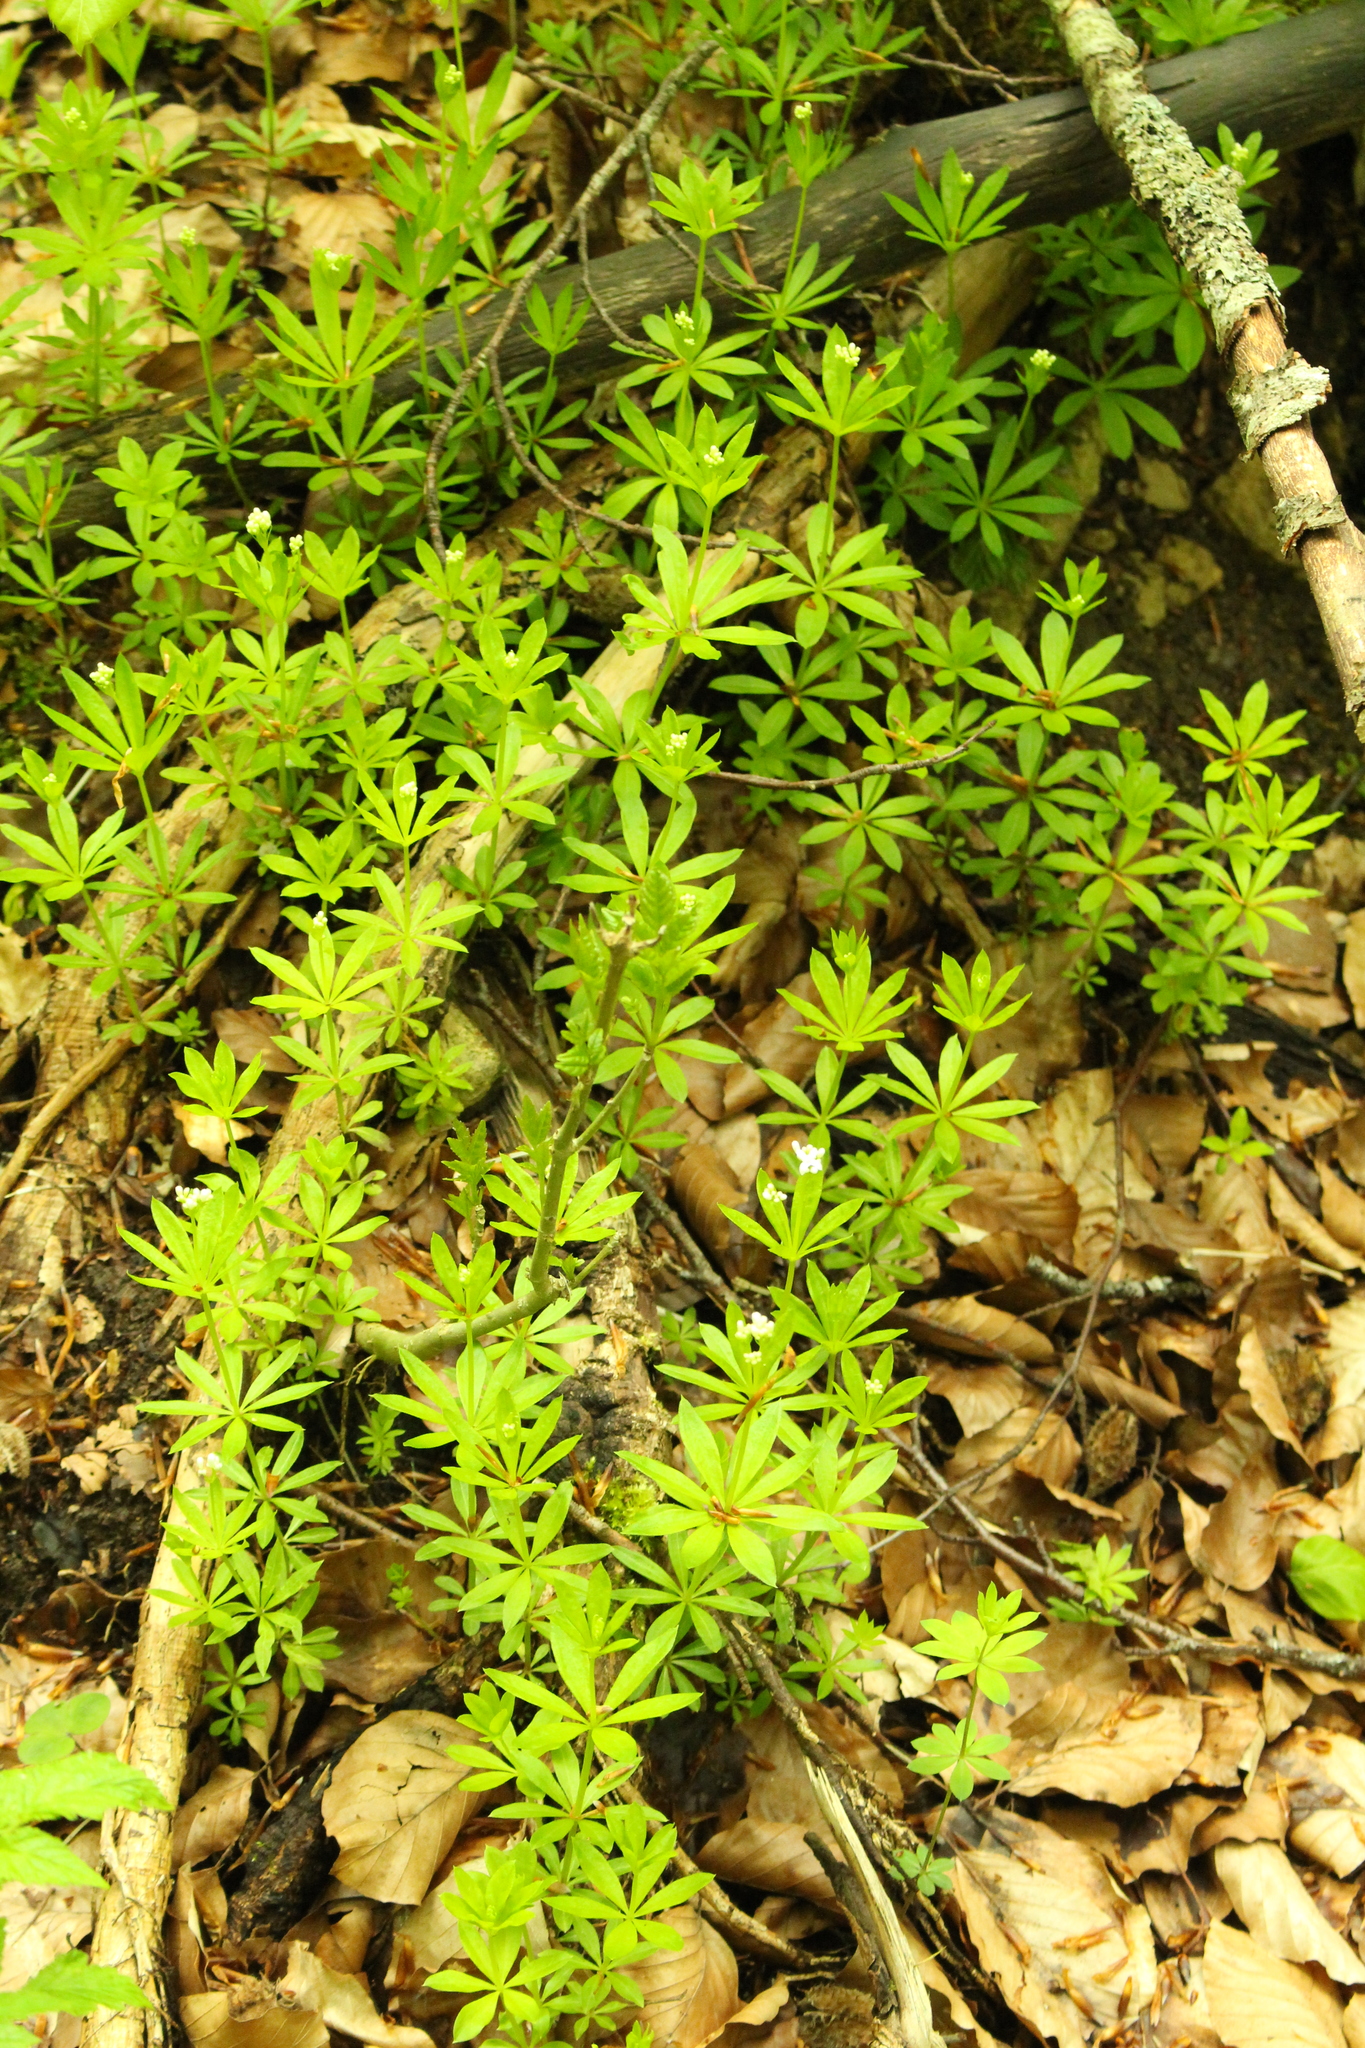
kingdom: Plantae
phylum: Tracheophyta
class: Magnoliopsida
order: Gentianales
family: Rubiaceae
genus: Galium
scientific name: Galium odoratum
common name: Sweet woodruff
